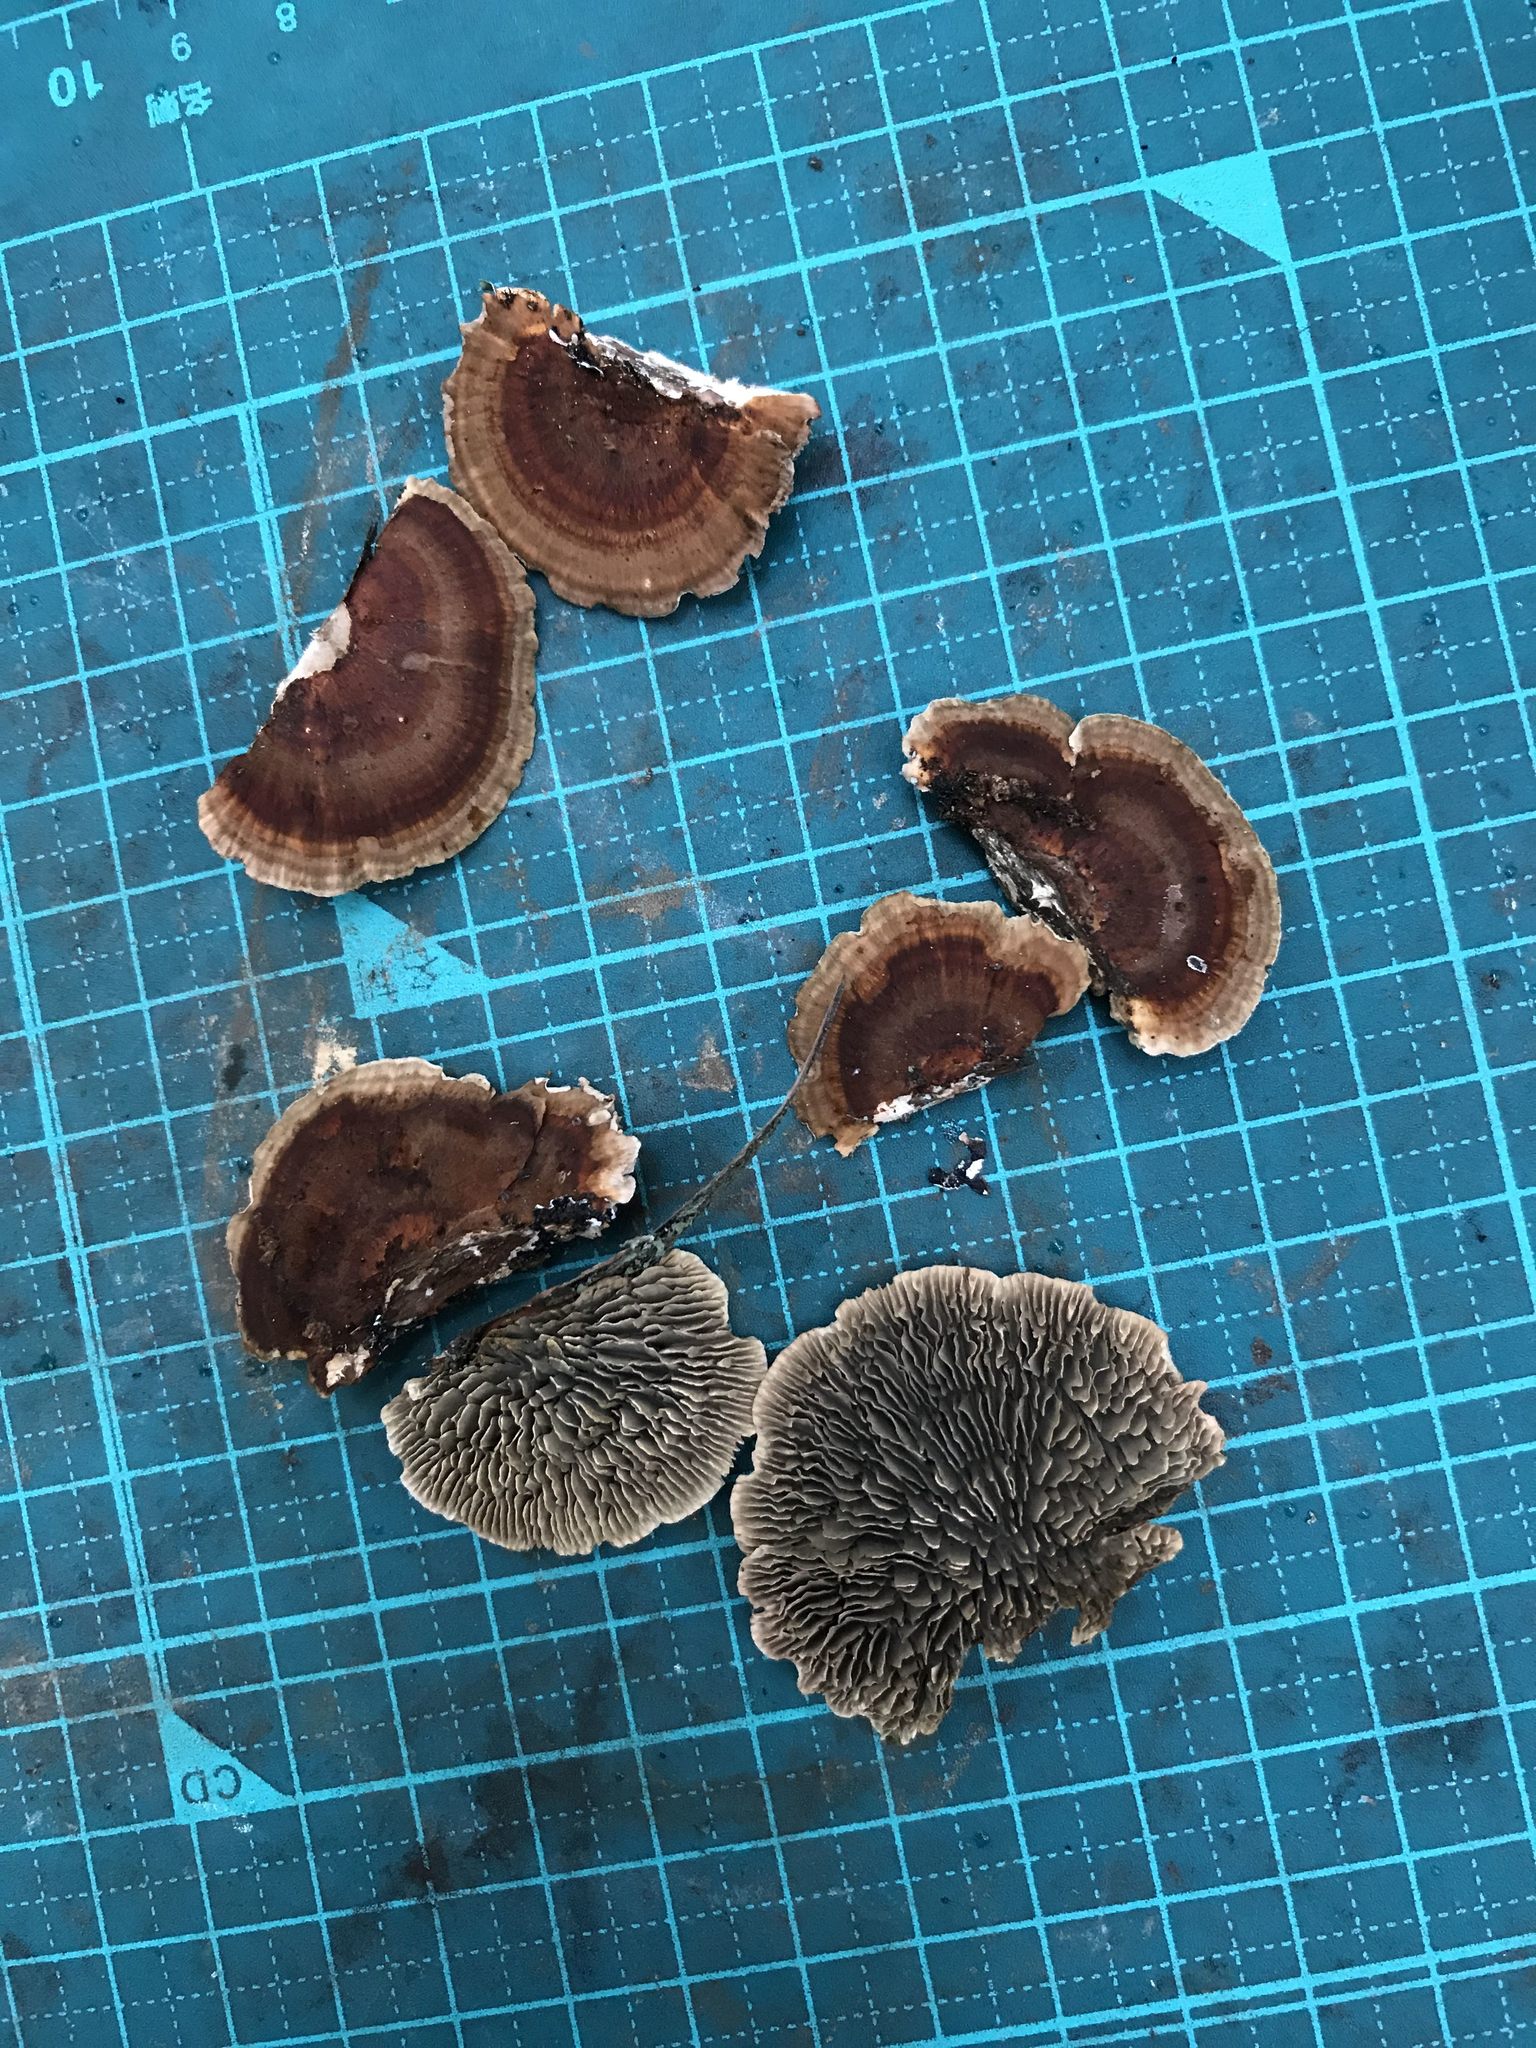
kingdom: Fungi
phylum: Basidiomycota
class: Agaricomycetes
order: Polyporales
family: Polyporaceae
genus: Daedaleopsis
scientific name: Daedaleopsis tricolor
